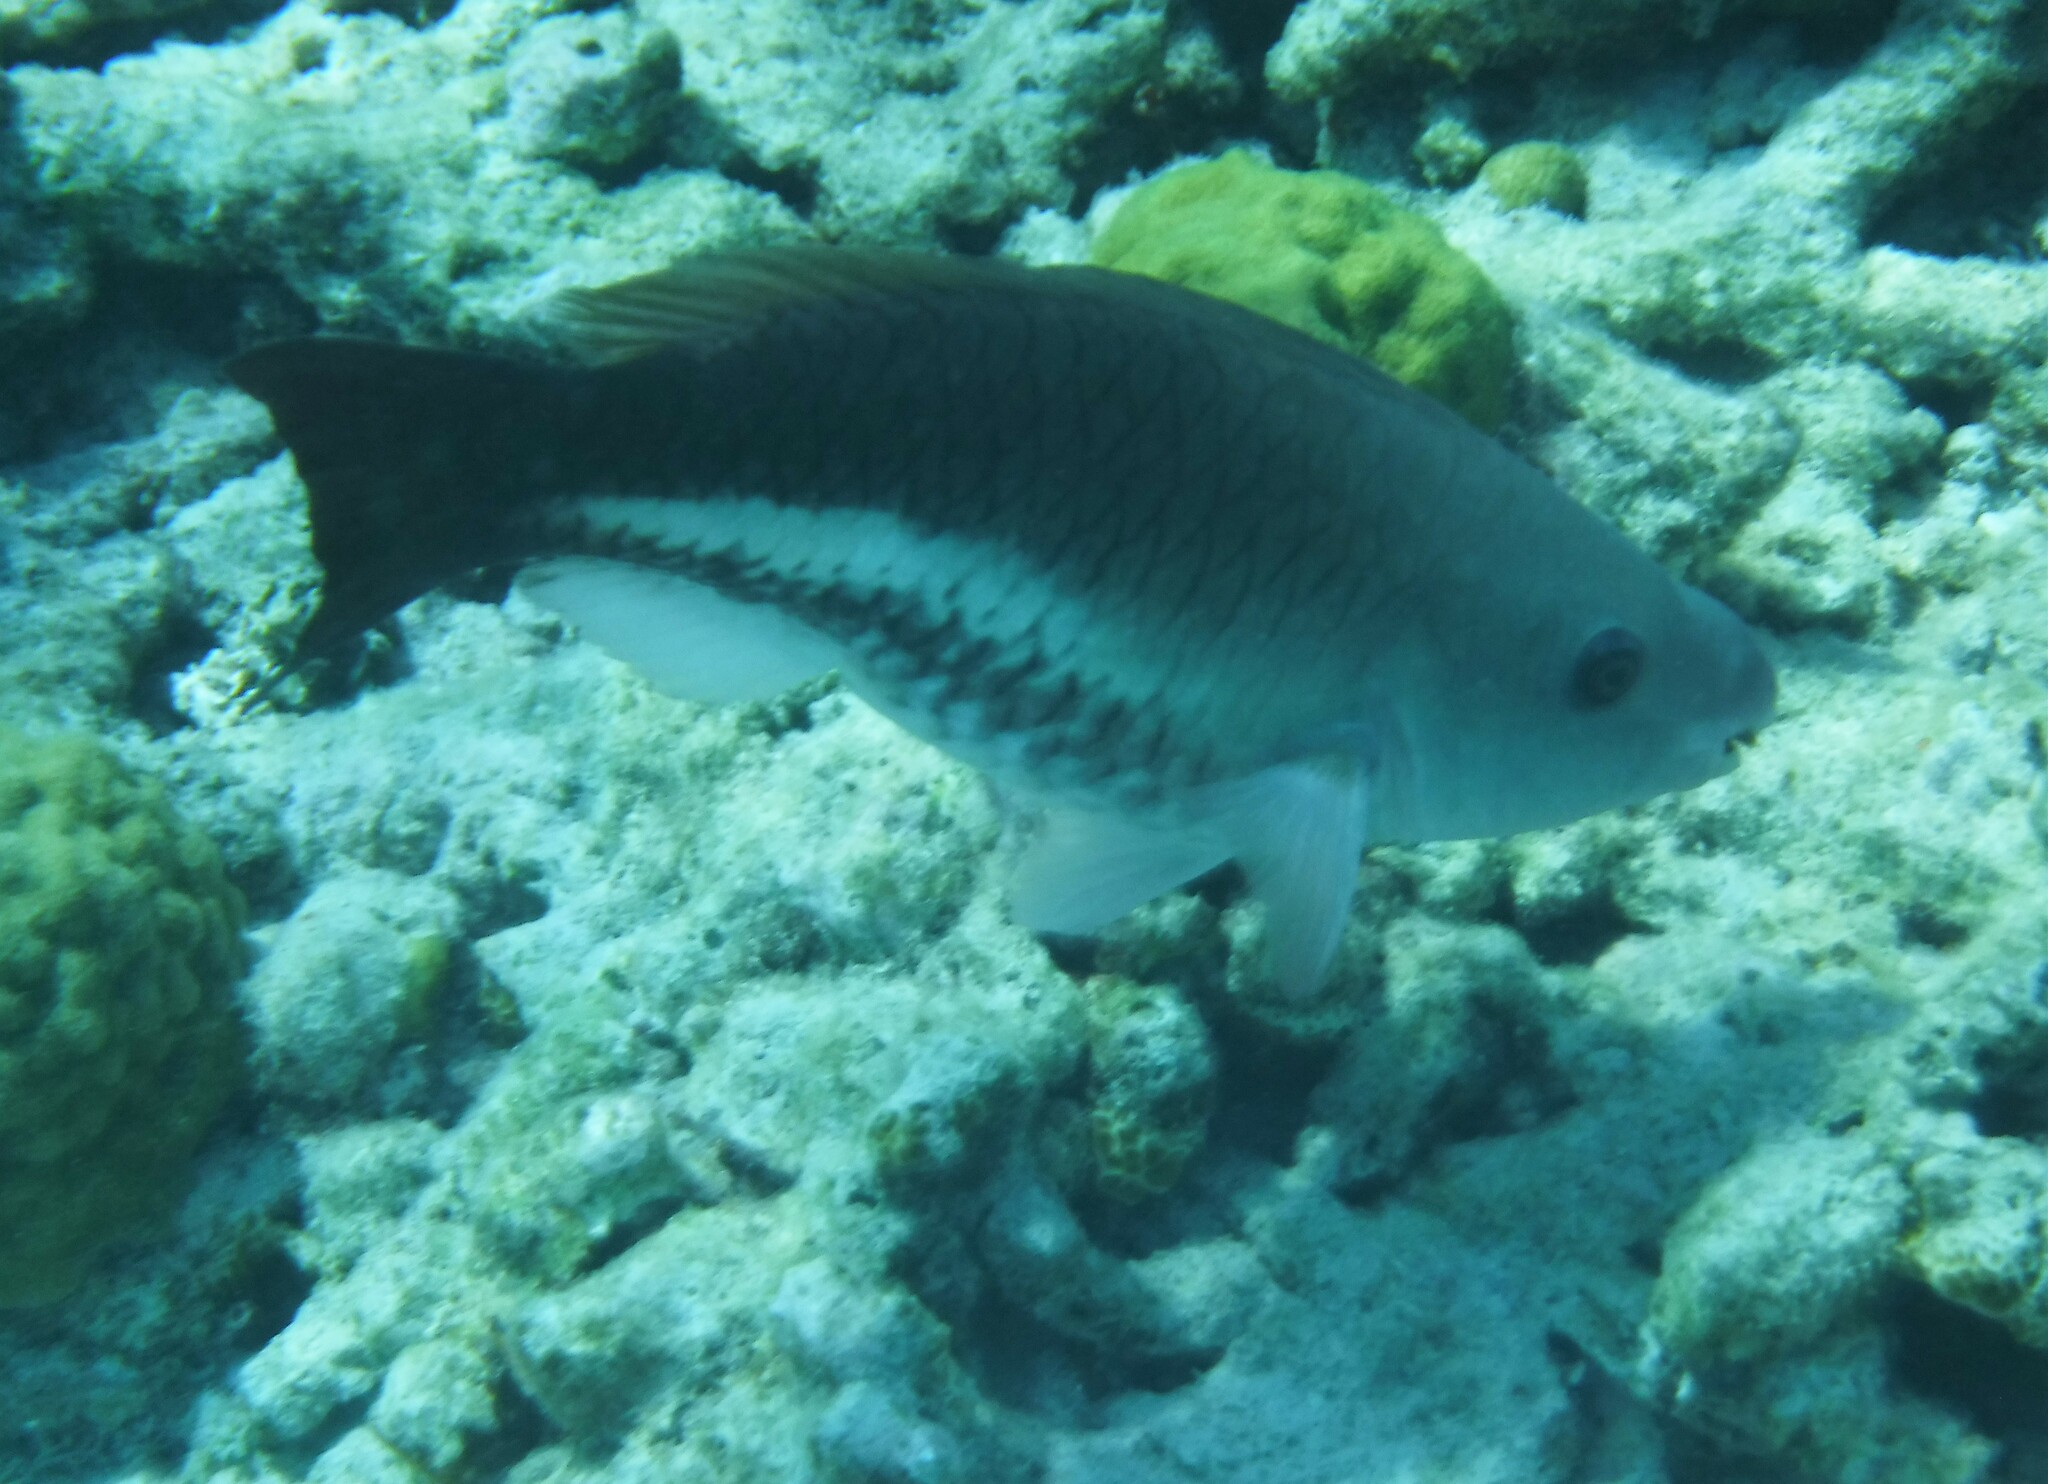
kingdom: Animalia
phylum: Chordata
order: Perciformes
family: Scaridae
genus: Scarus
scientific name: Scarus vetula
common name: Queen parrotfish
